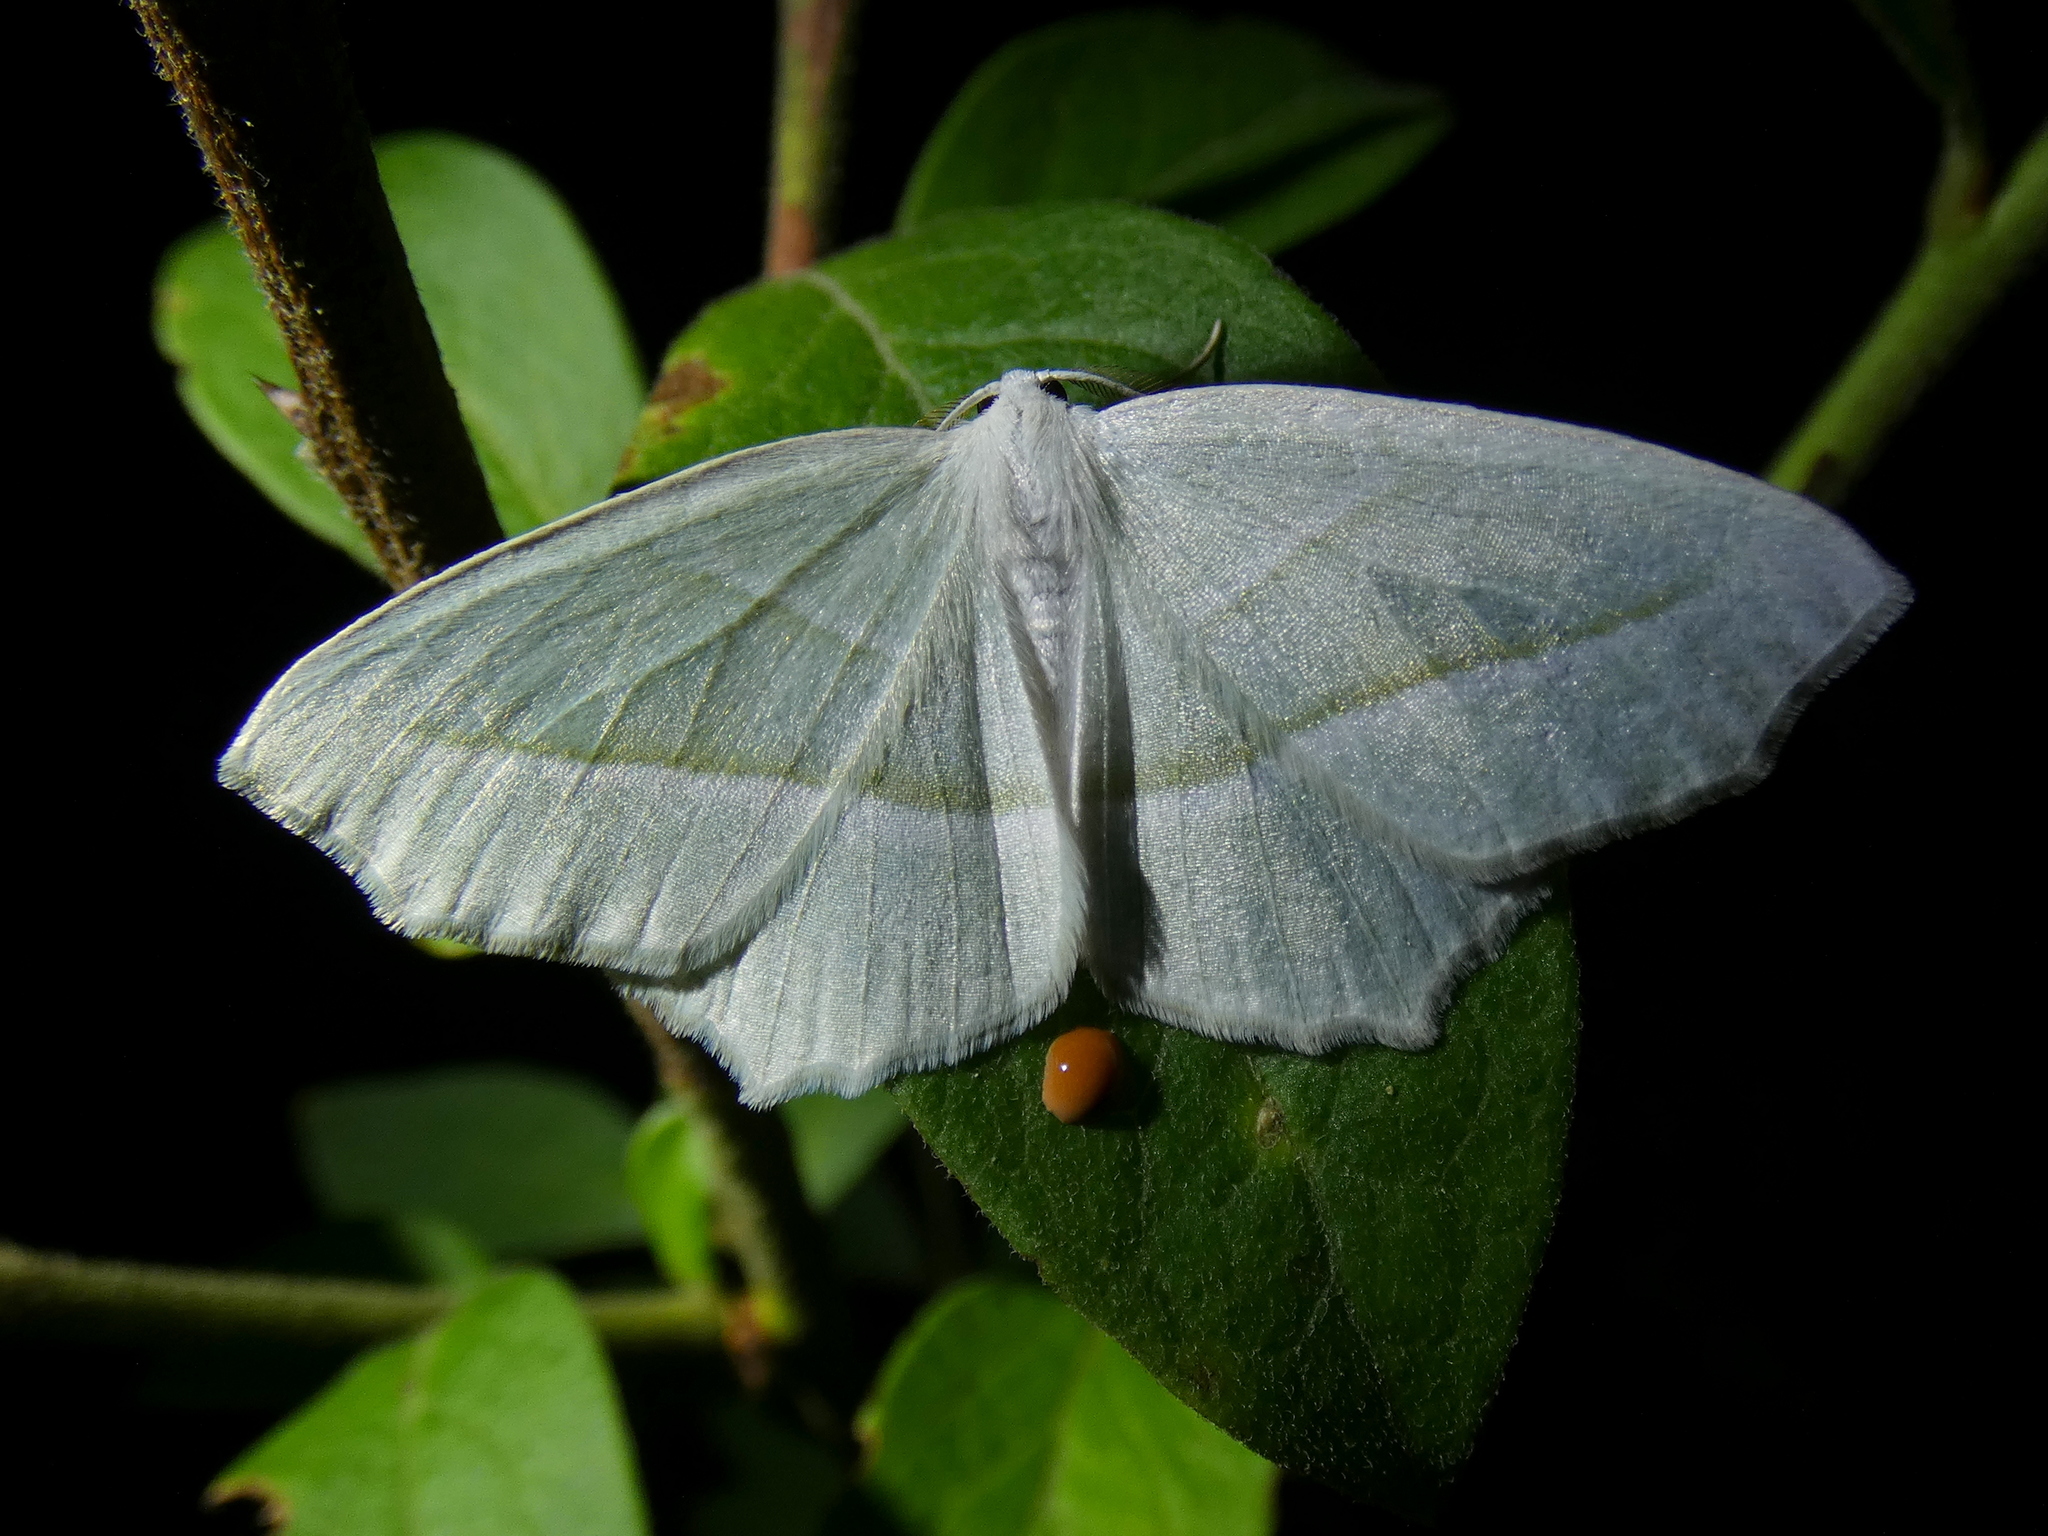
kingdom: Animalia
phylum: Arthropoda
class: Insecta
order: Lepidoptera
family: Geometridae
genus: Campaea
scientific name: Campaea perlata
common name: Fringed looper
